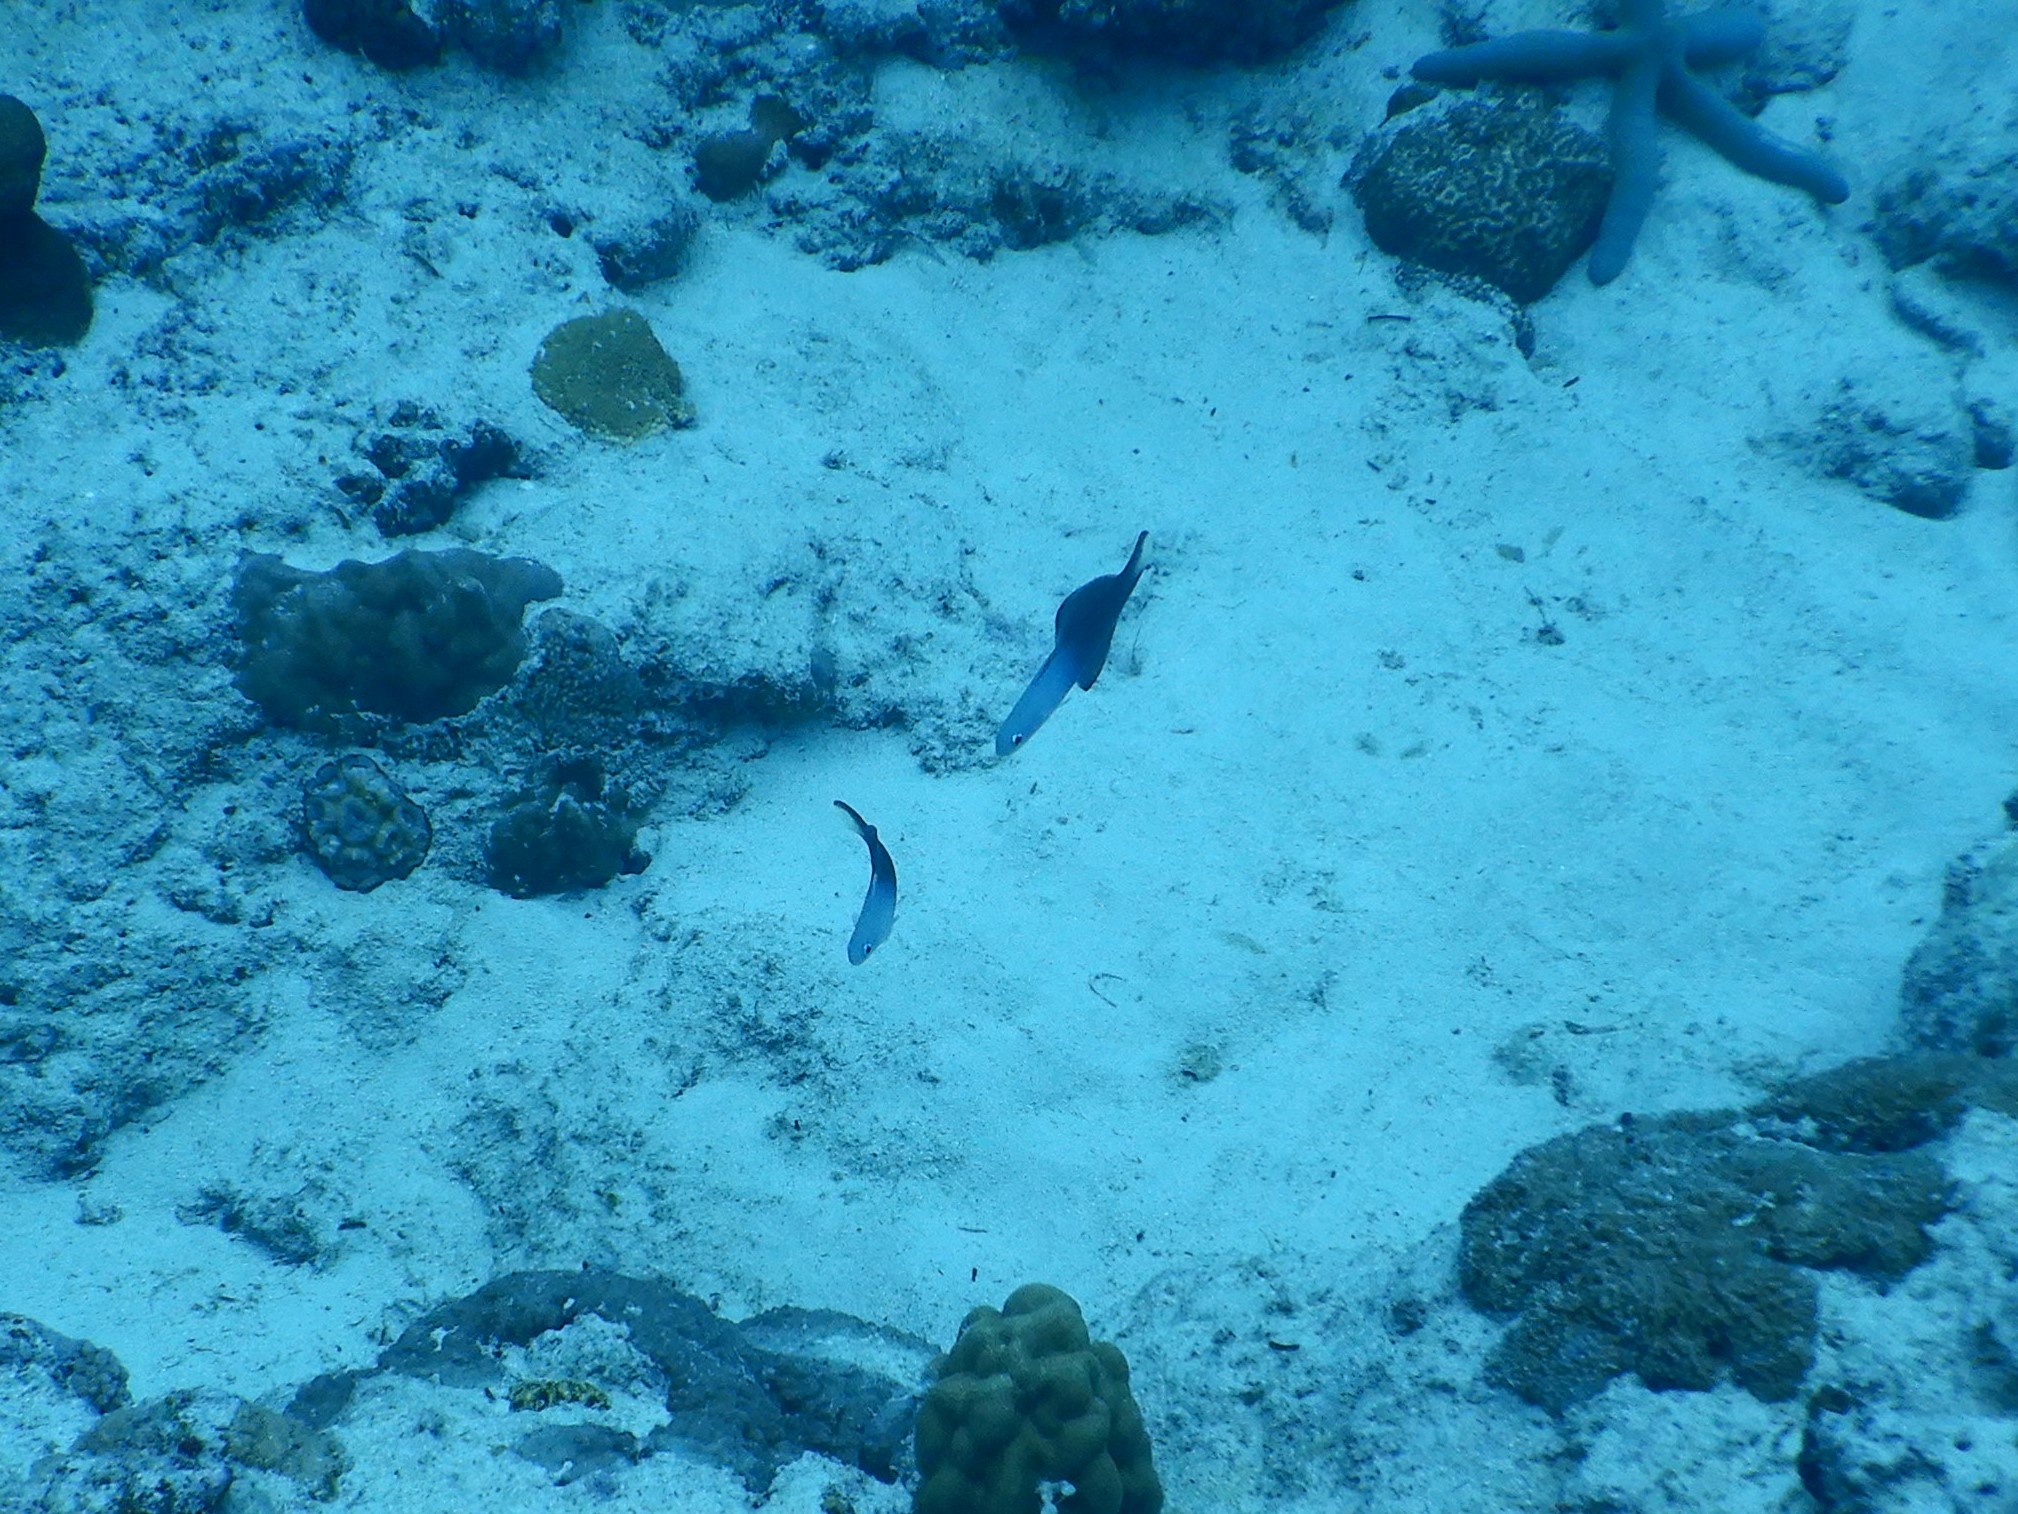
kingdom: Animalia
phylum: Chordata
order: Perciformes
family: Microdesmidae
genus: Ptereleotris
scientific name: Ptereleotris evides
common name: Blackfin dartfish
